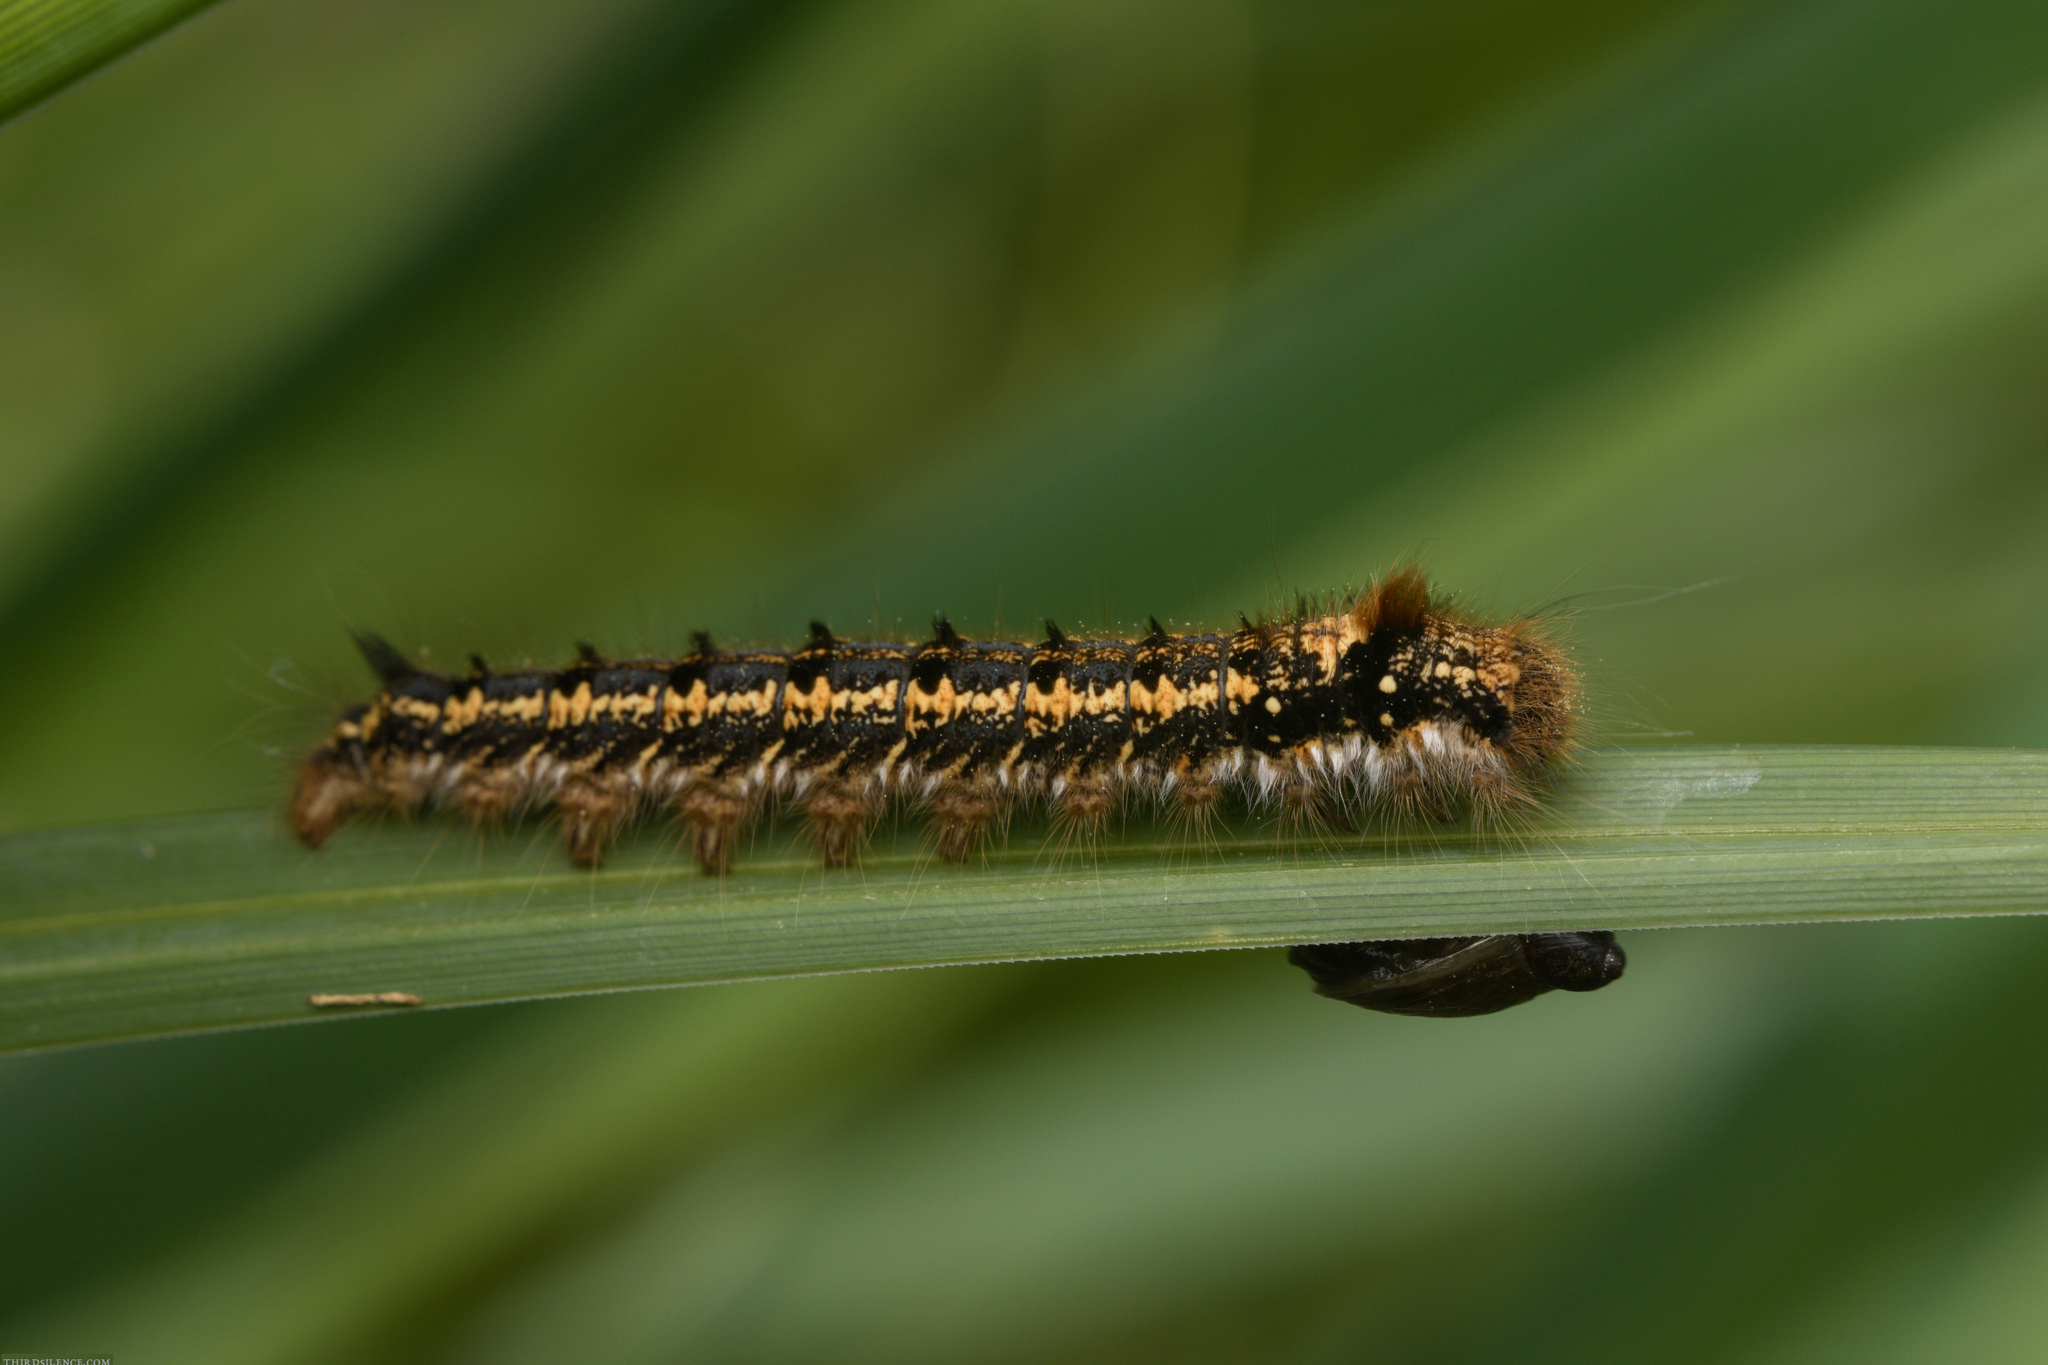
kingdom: Animalia
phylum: Arthropoda
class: Insecta
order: Lepidoptera
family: Lasiocampidae
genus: Euthrix
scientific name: Euthrix potatoria
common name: Drinker
